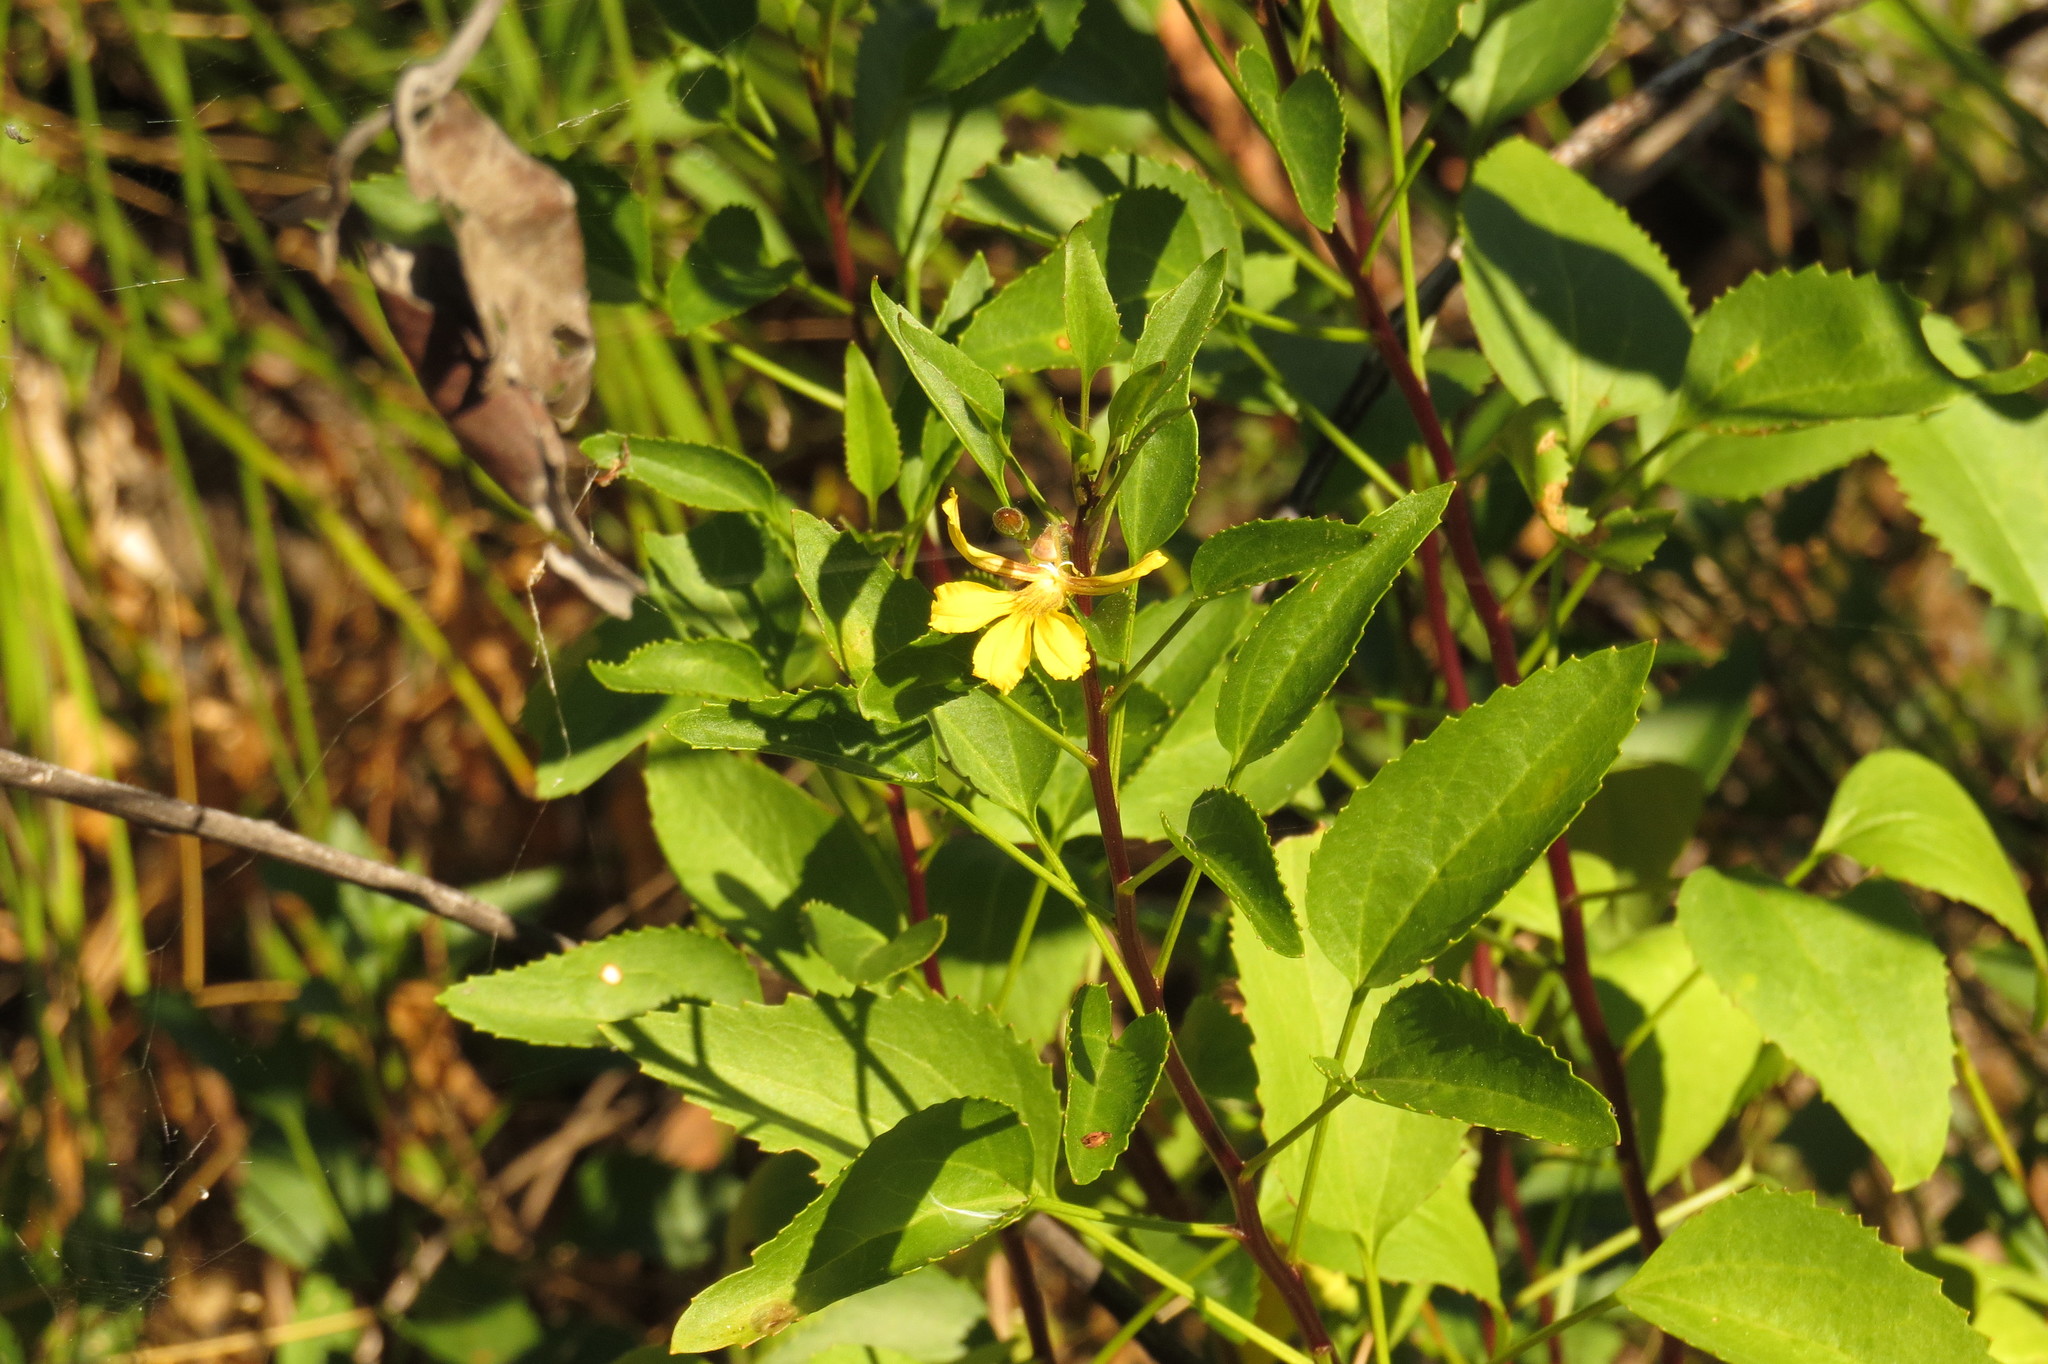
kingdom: Plantae
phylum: Tracheophyta
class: Magnoliopsida
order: Asterales
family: Goodeniaceae
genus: Goodenia
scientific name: Goodenia grandiflora
